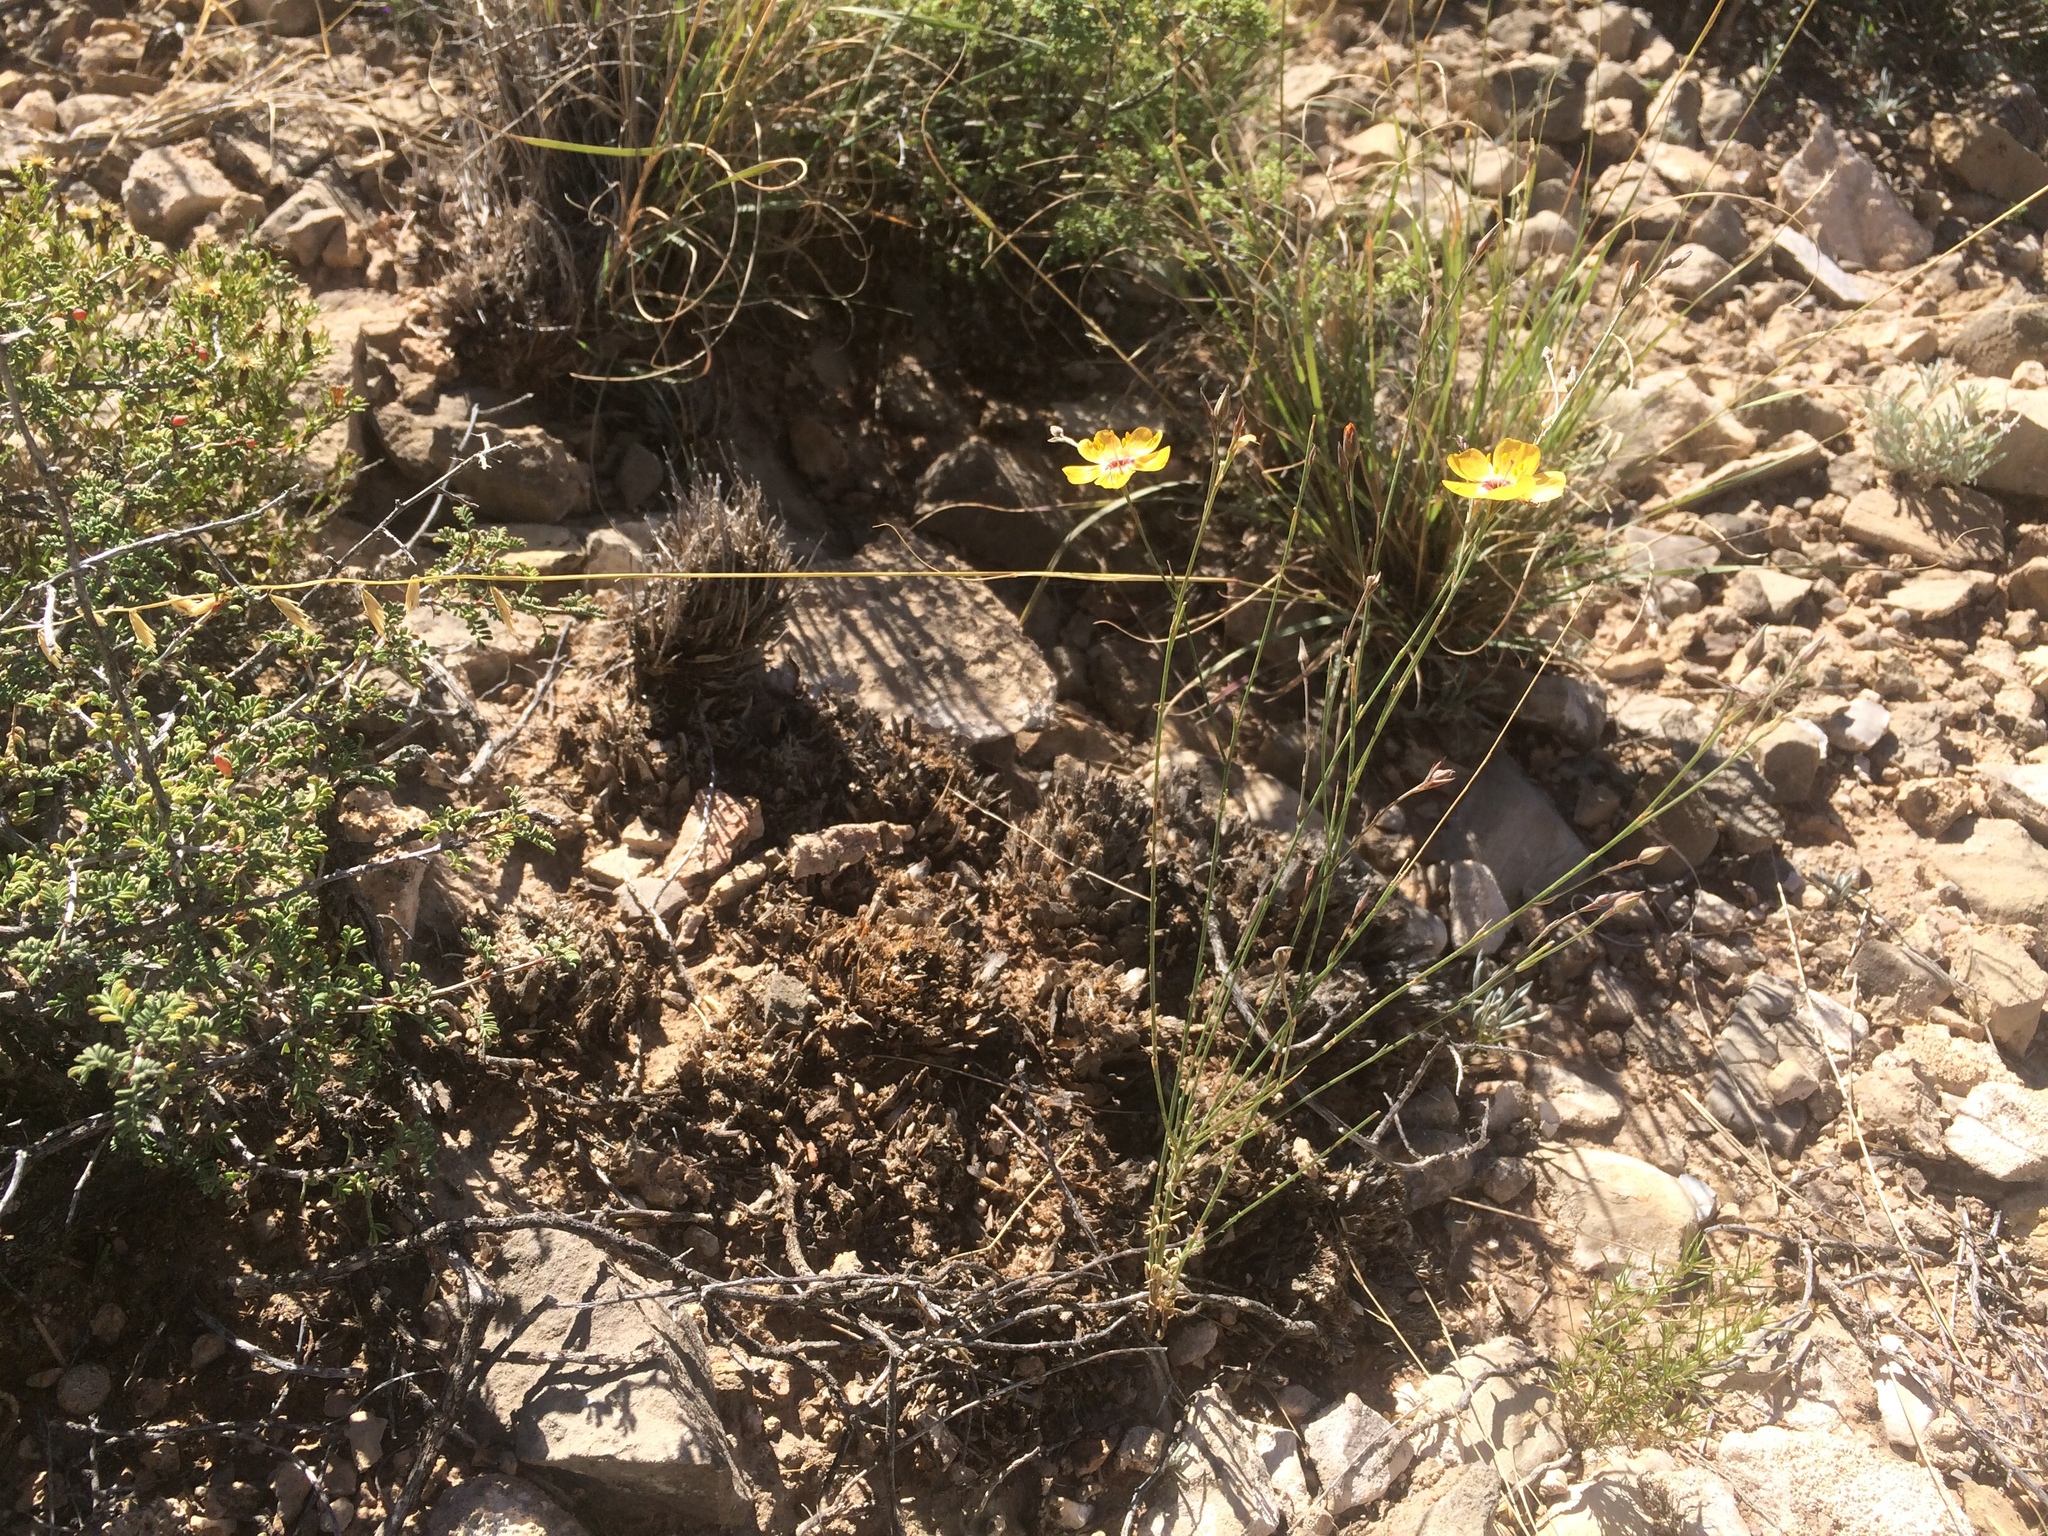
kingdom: Plantae
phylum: Tracheophyta
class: Magnoliopsida
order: Malpighiales
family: Linaceae
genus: Linum
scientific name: Linum vernale
